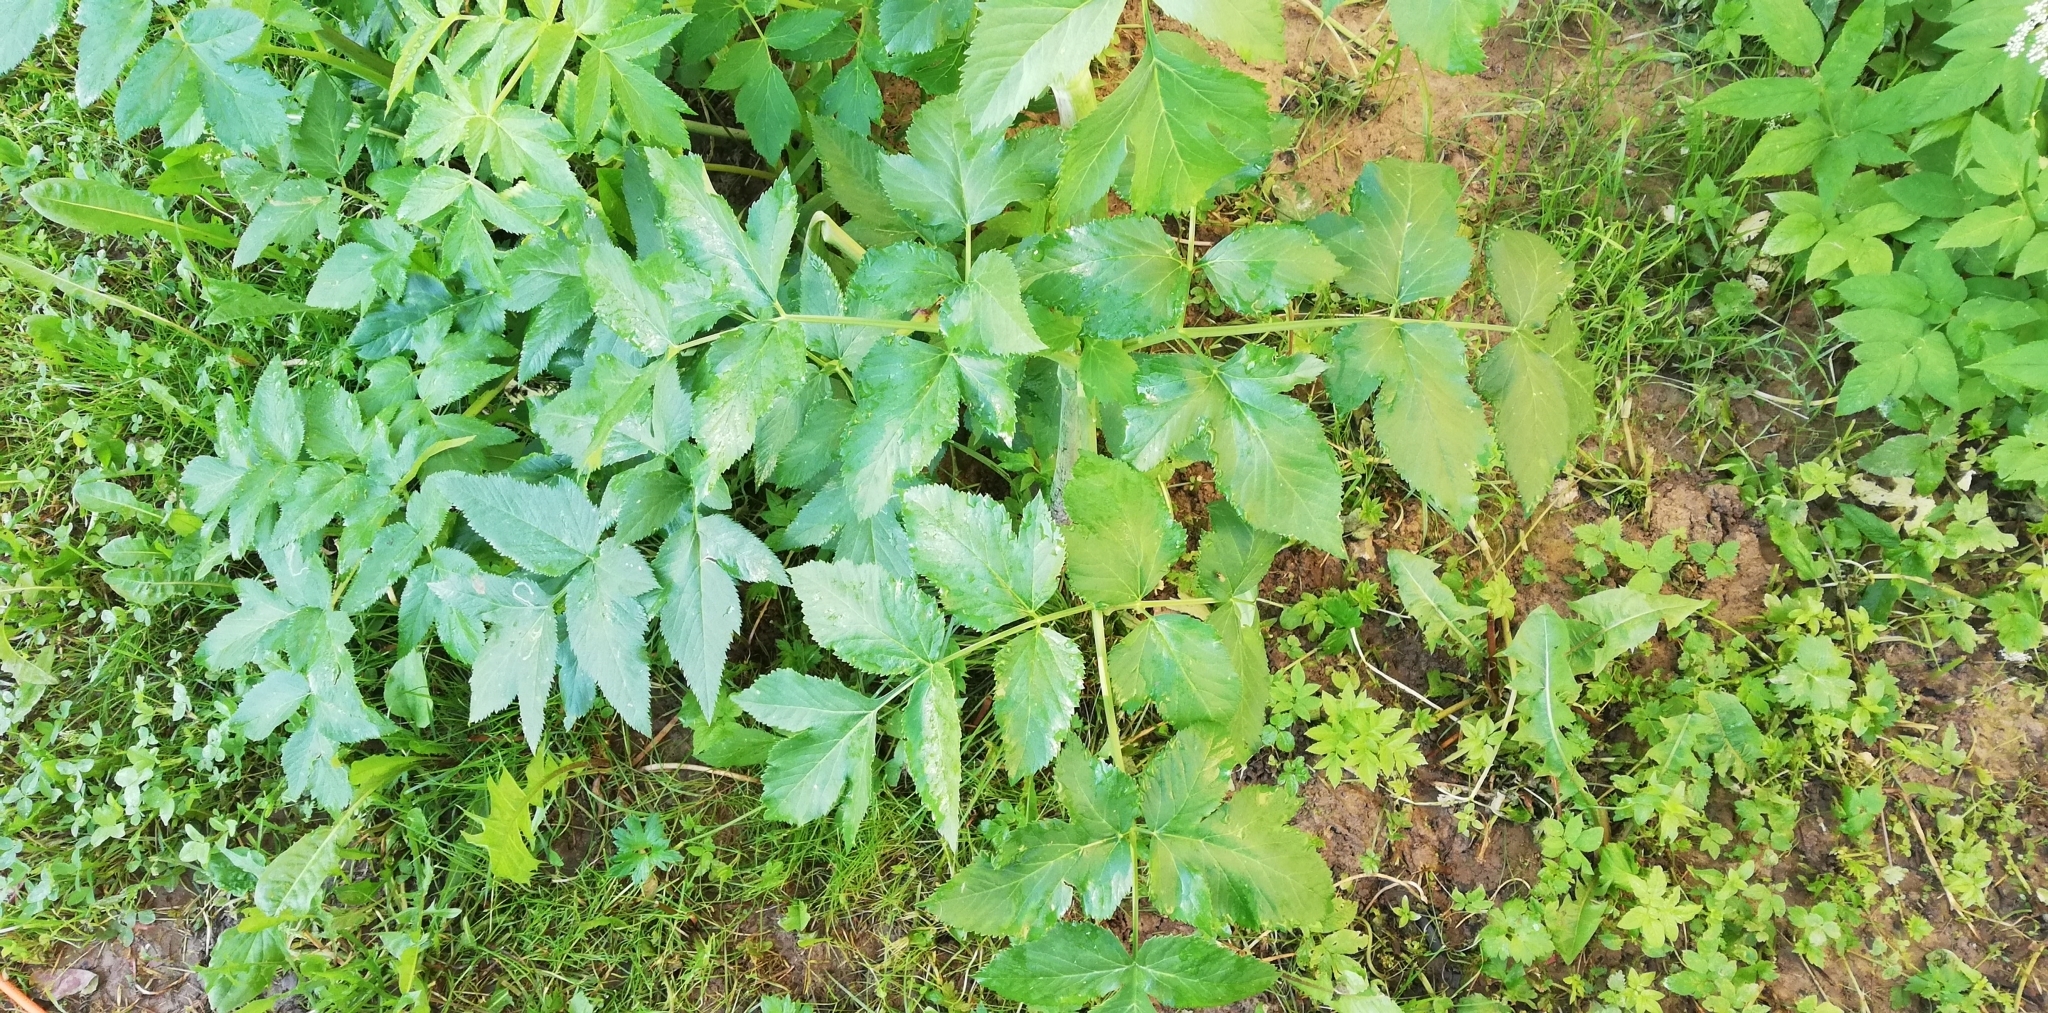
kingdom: Plantae
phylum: Tracheophyta
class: Magnoliopsida
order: Apiales
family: Apiaceae
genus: Angelica
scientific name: Angelica archangelica
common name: Garden angelica
